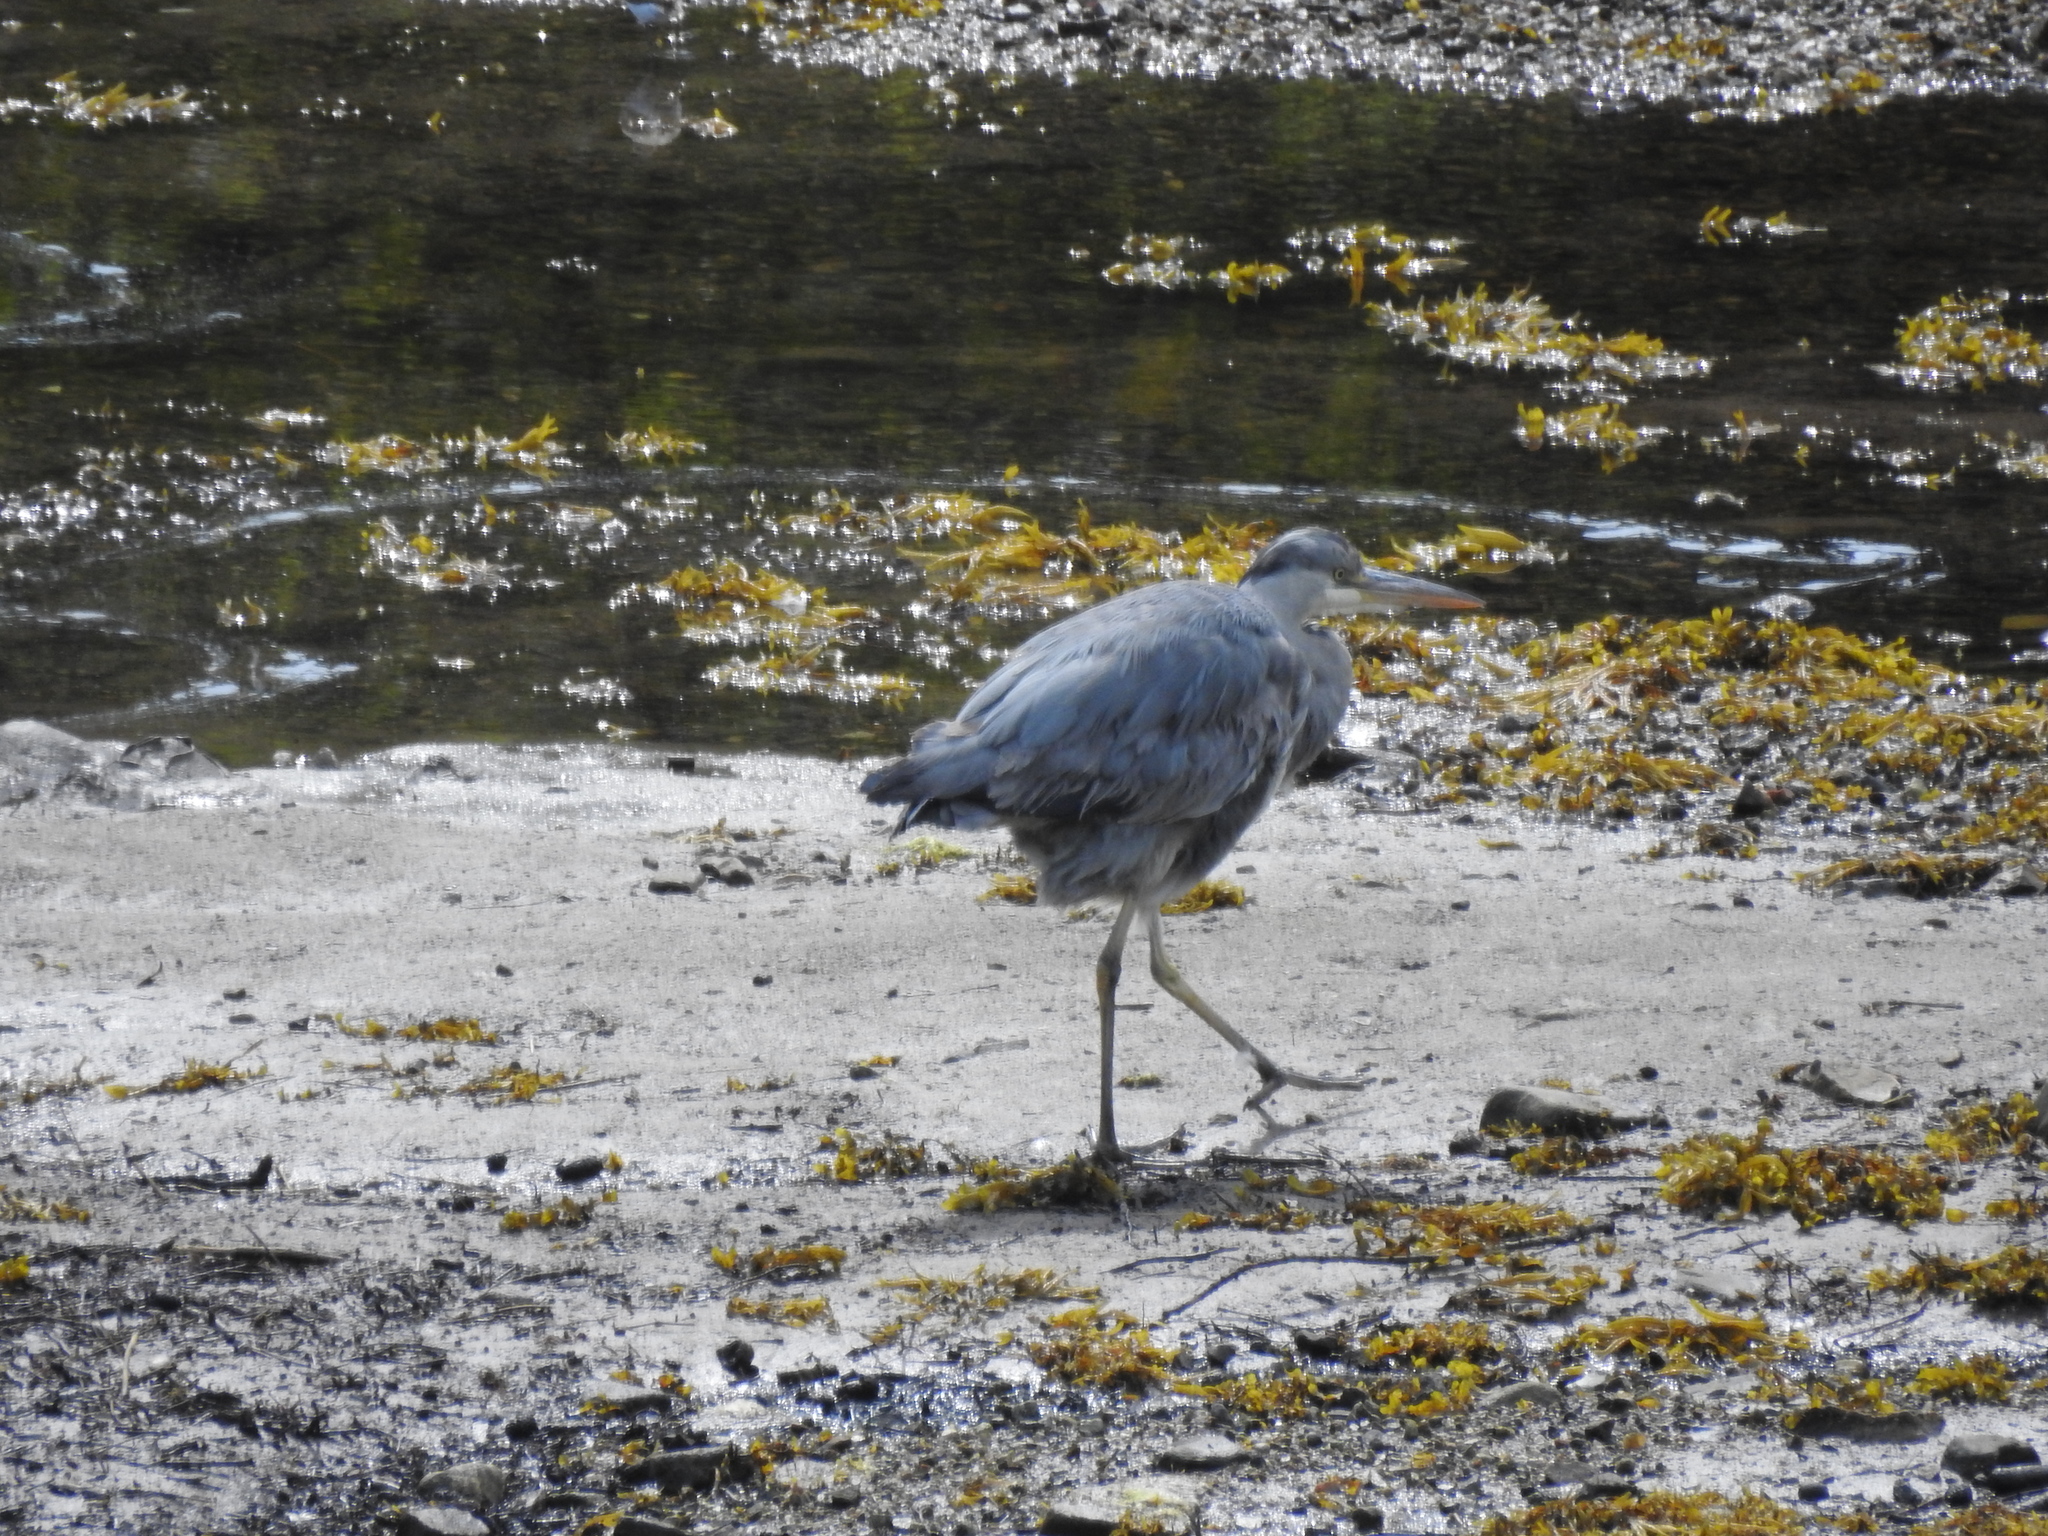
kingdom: Animalia
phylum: Chordata
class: Aves
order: Pelecaniformes
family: Ardeidae
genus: Ardea
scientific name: Ardea cinerea
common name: Grey heron
